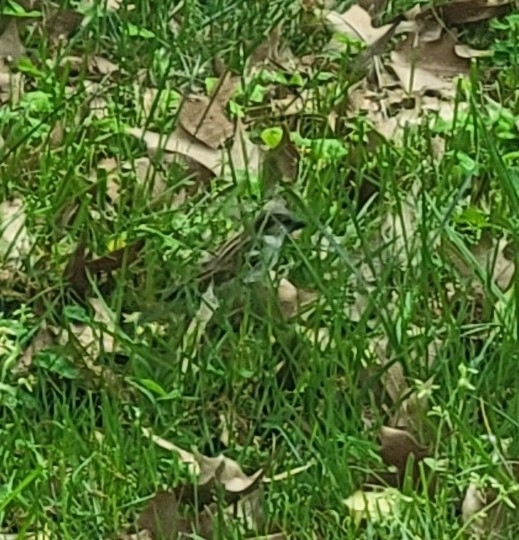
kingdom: Animalia
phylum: Chordata
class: Aves
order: Passeriformes
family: Passeridae
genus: Passer
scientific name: Passer domesticus
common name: House sparrow
